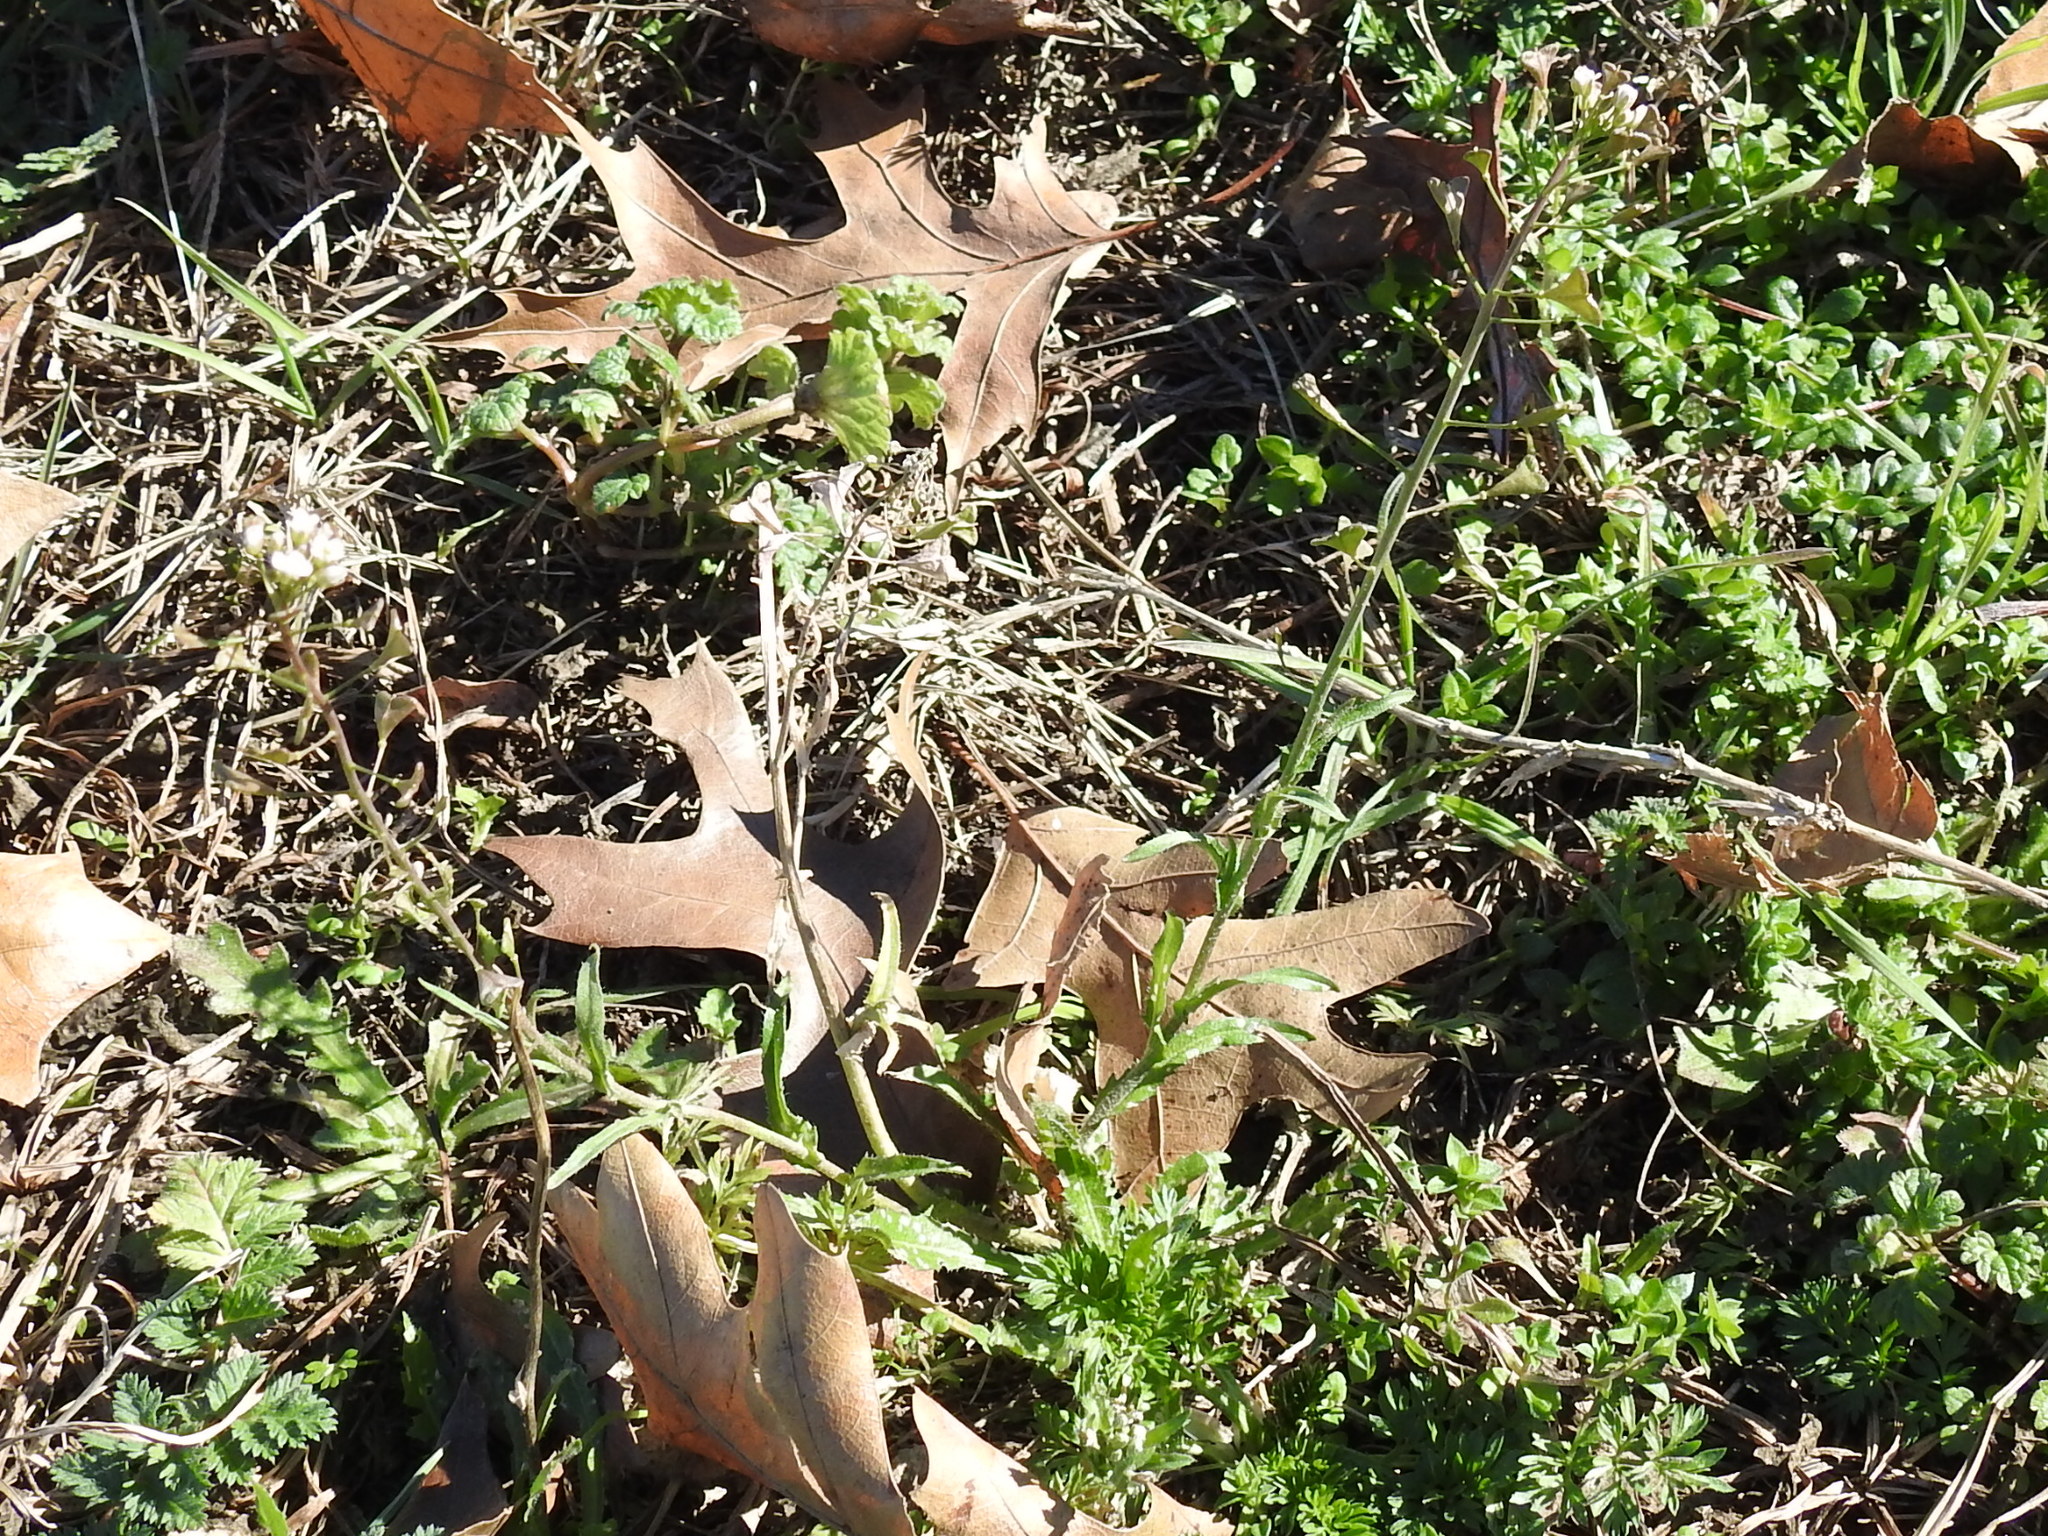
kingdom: Plantae
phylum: Tracheophyta
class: Magnoliopsida
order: Brassicales
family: Brassicaceae
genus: Capsella
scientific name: Capsella bursa-pastoris
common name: Shepherd's purse
